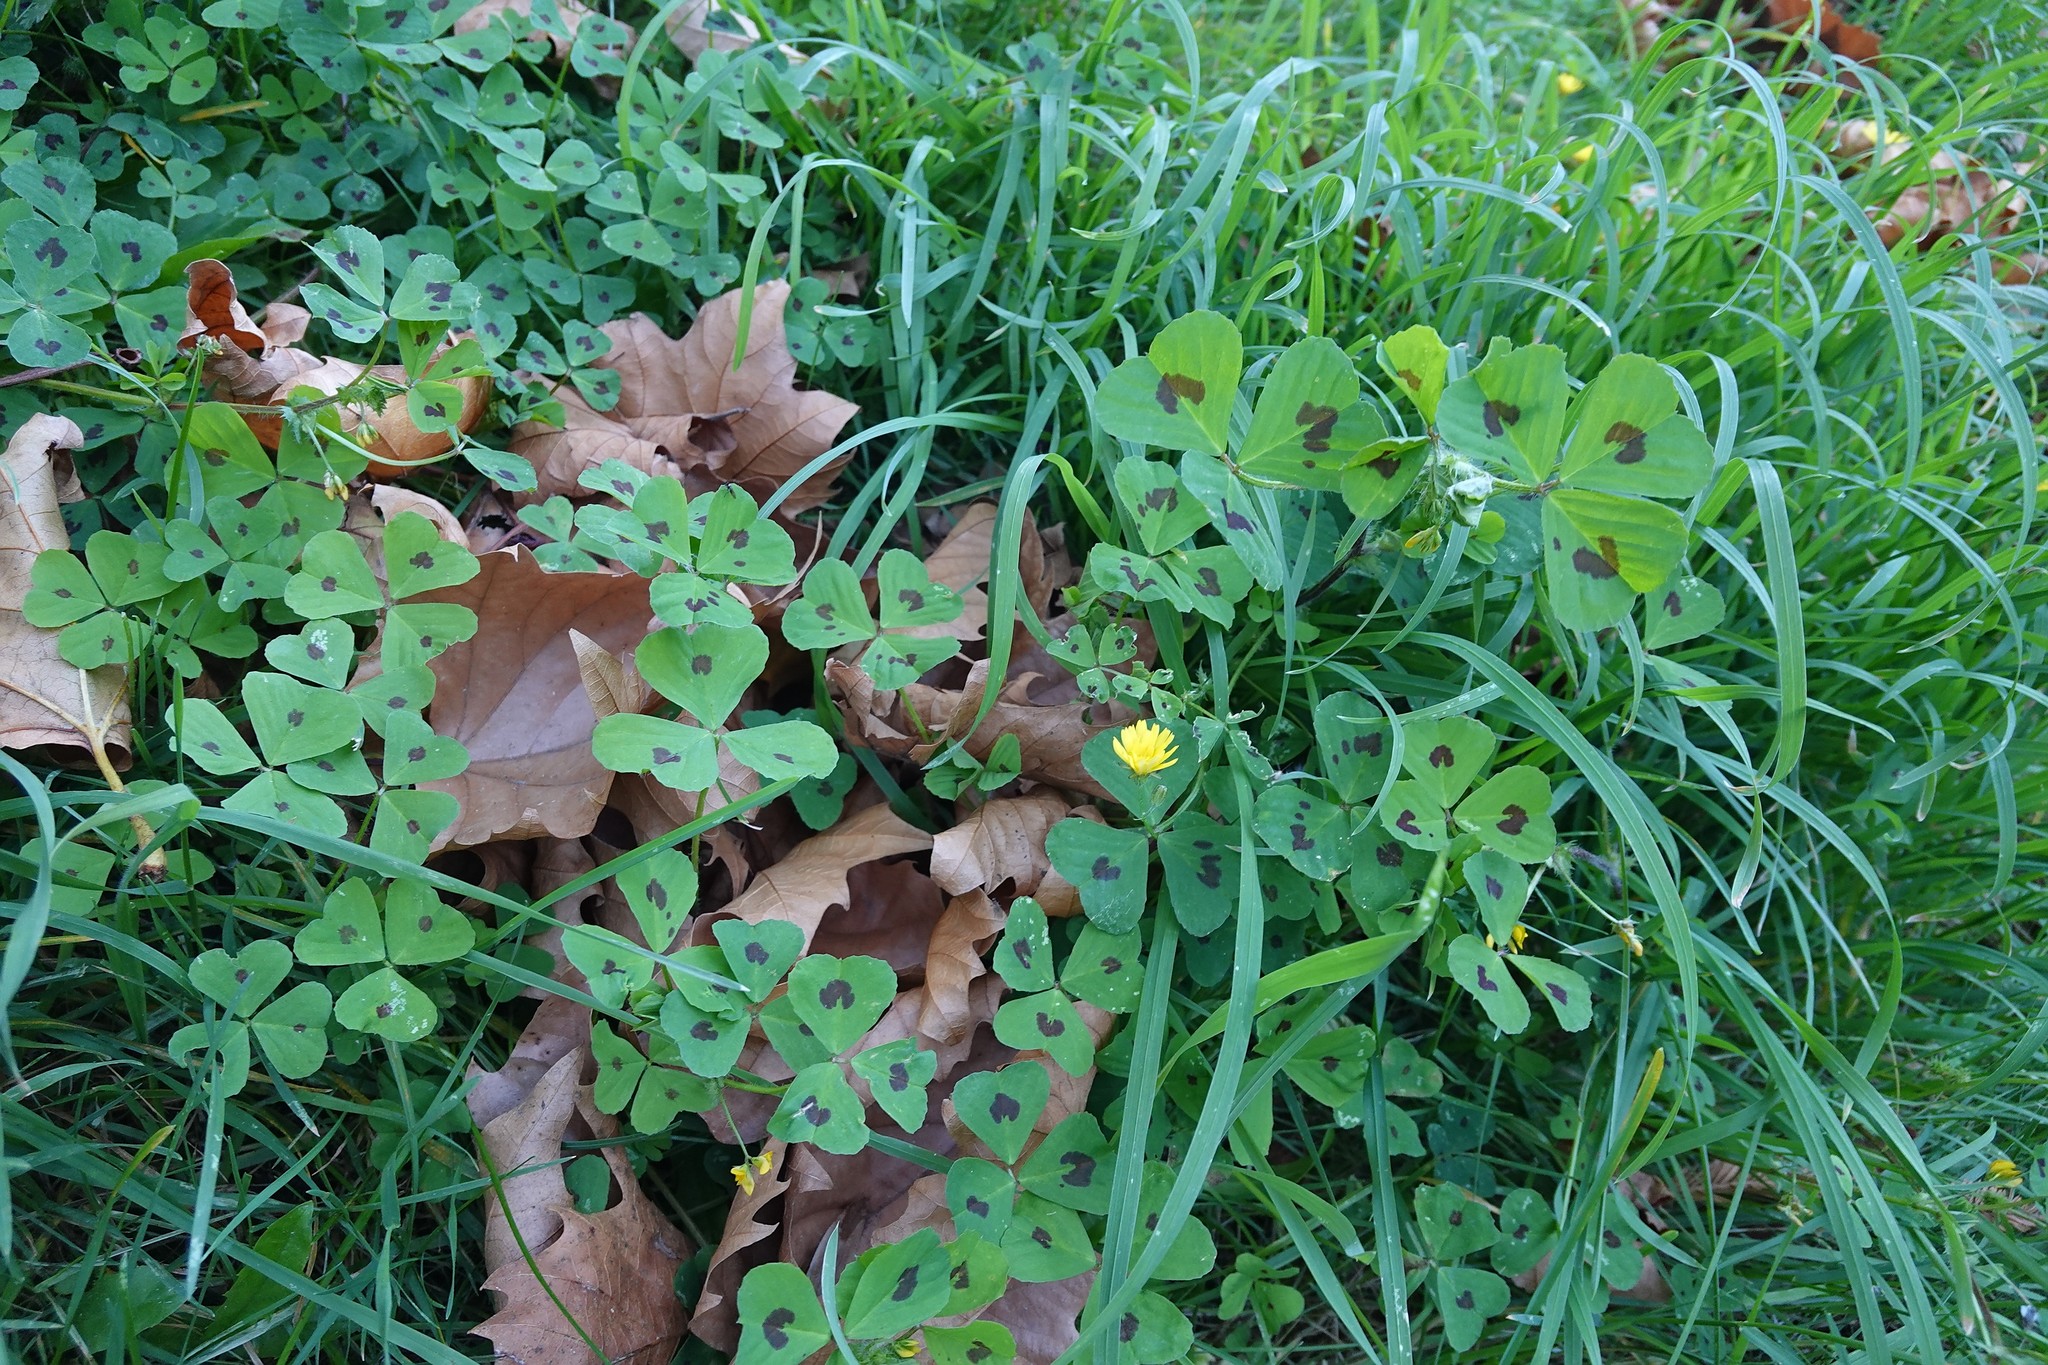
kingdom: Plantae
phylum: Tracheophyta
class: Magnoliopsida
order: Fabales
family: Fabaceae
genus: Medicago
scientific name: Medicago arabica
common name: Spotted medick
